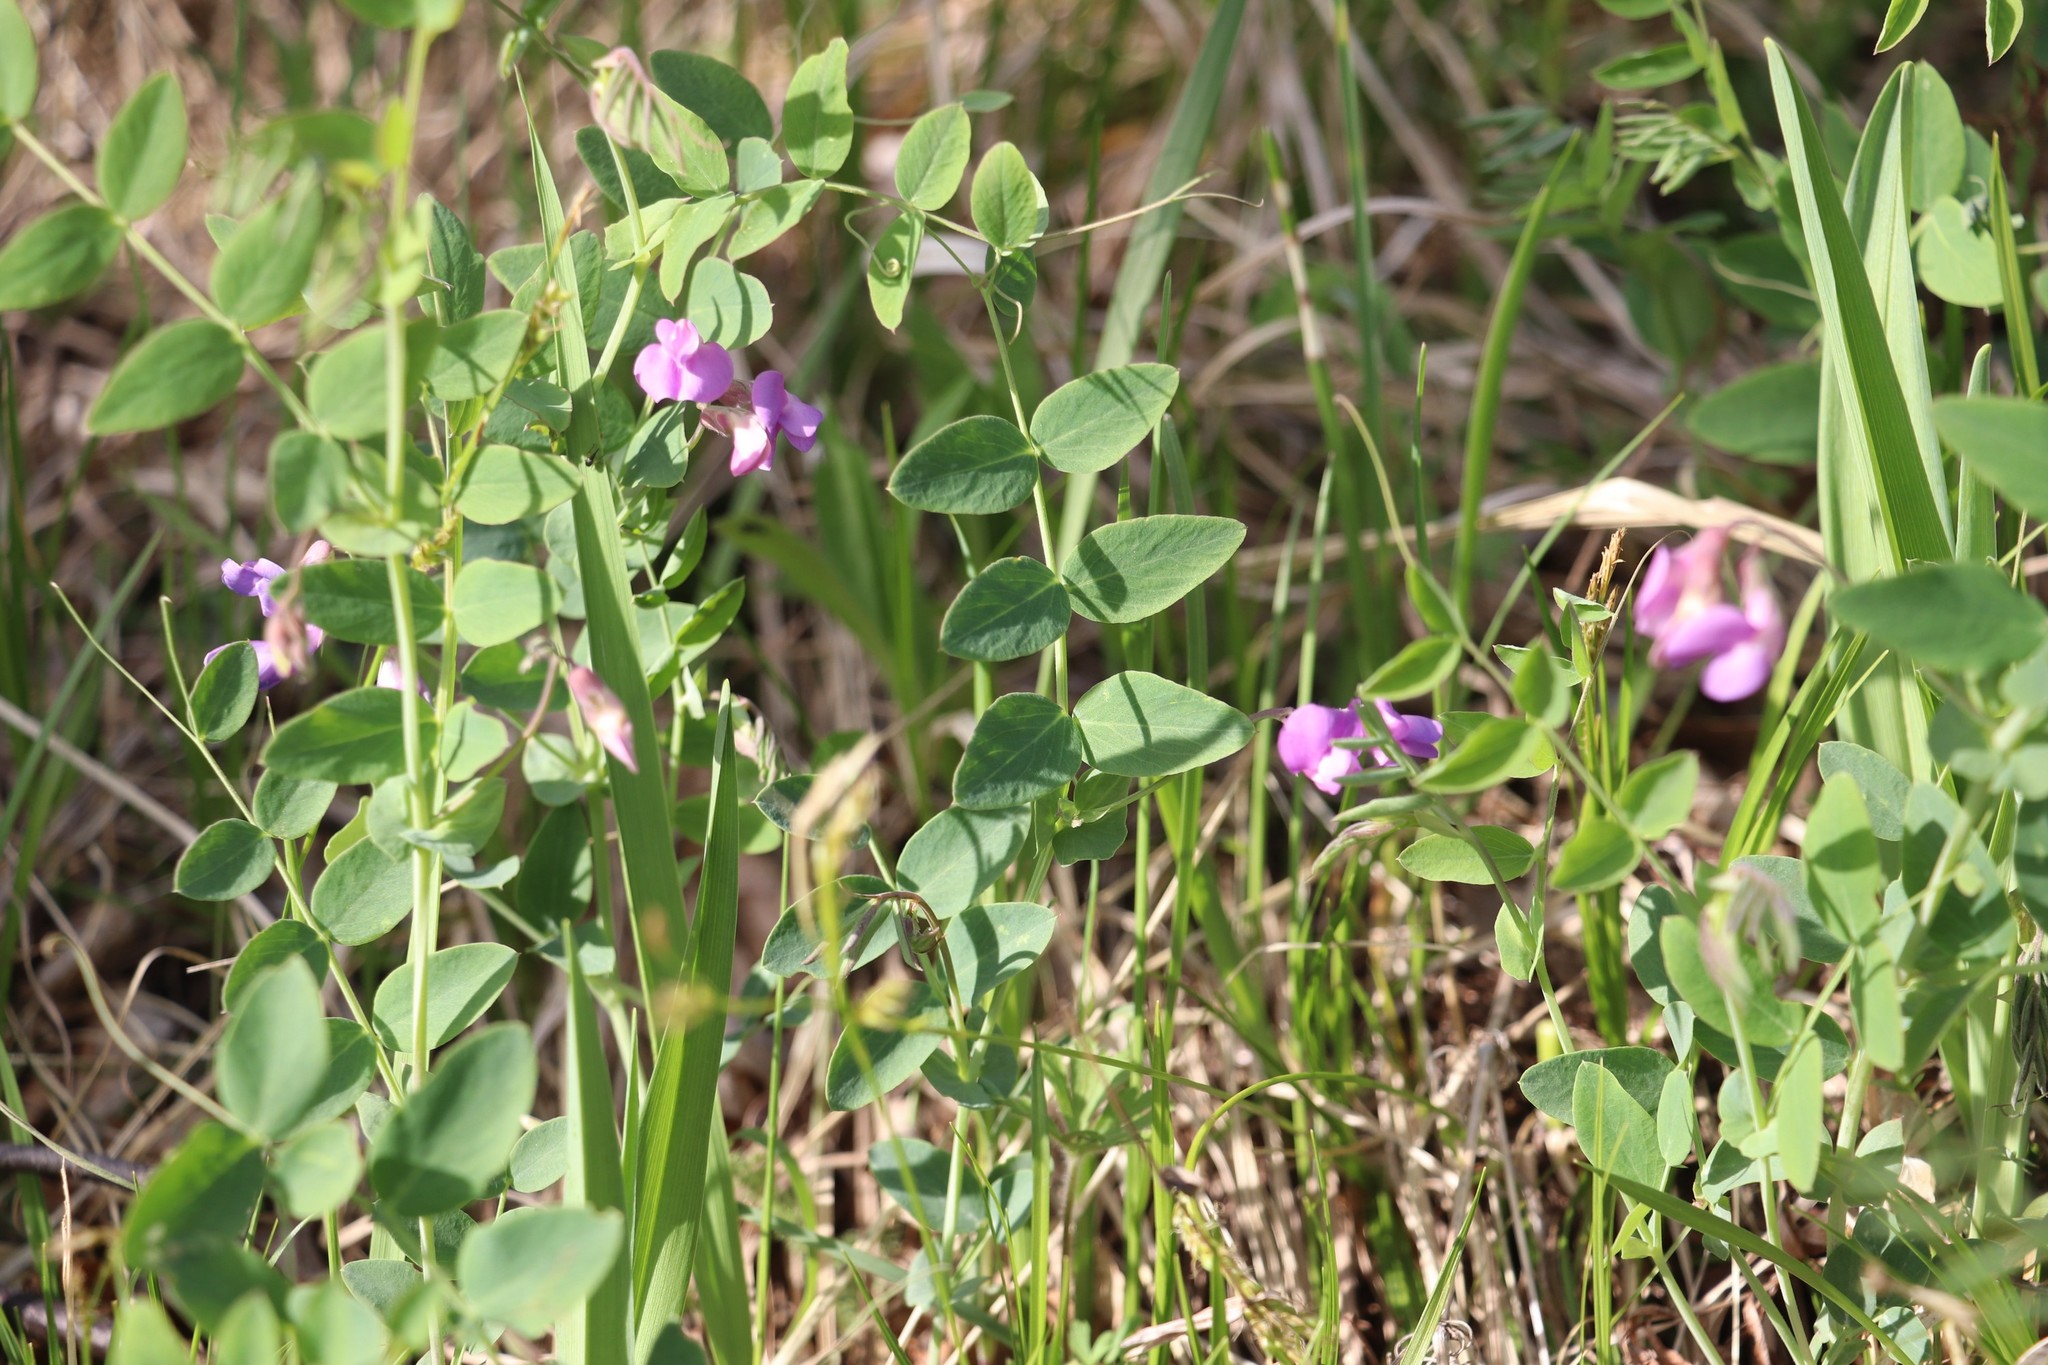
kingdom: Plantae
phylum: Tracheophyta
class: Magnoliopsida
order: Fabales
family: Fabaceae
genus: Lathyrus
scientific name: Lathyrus humilis
